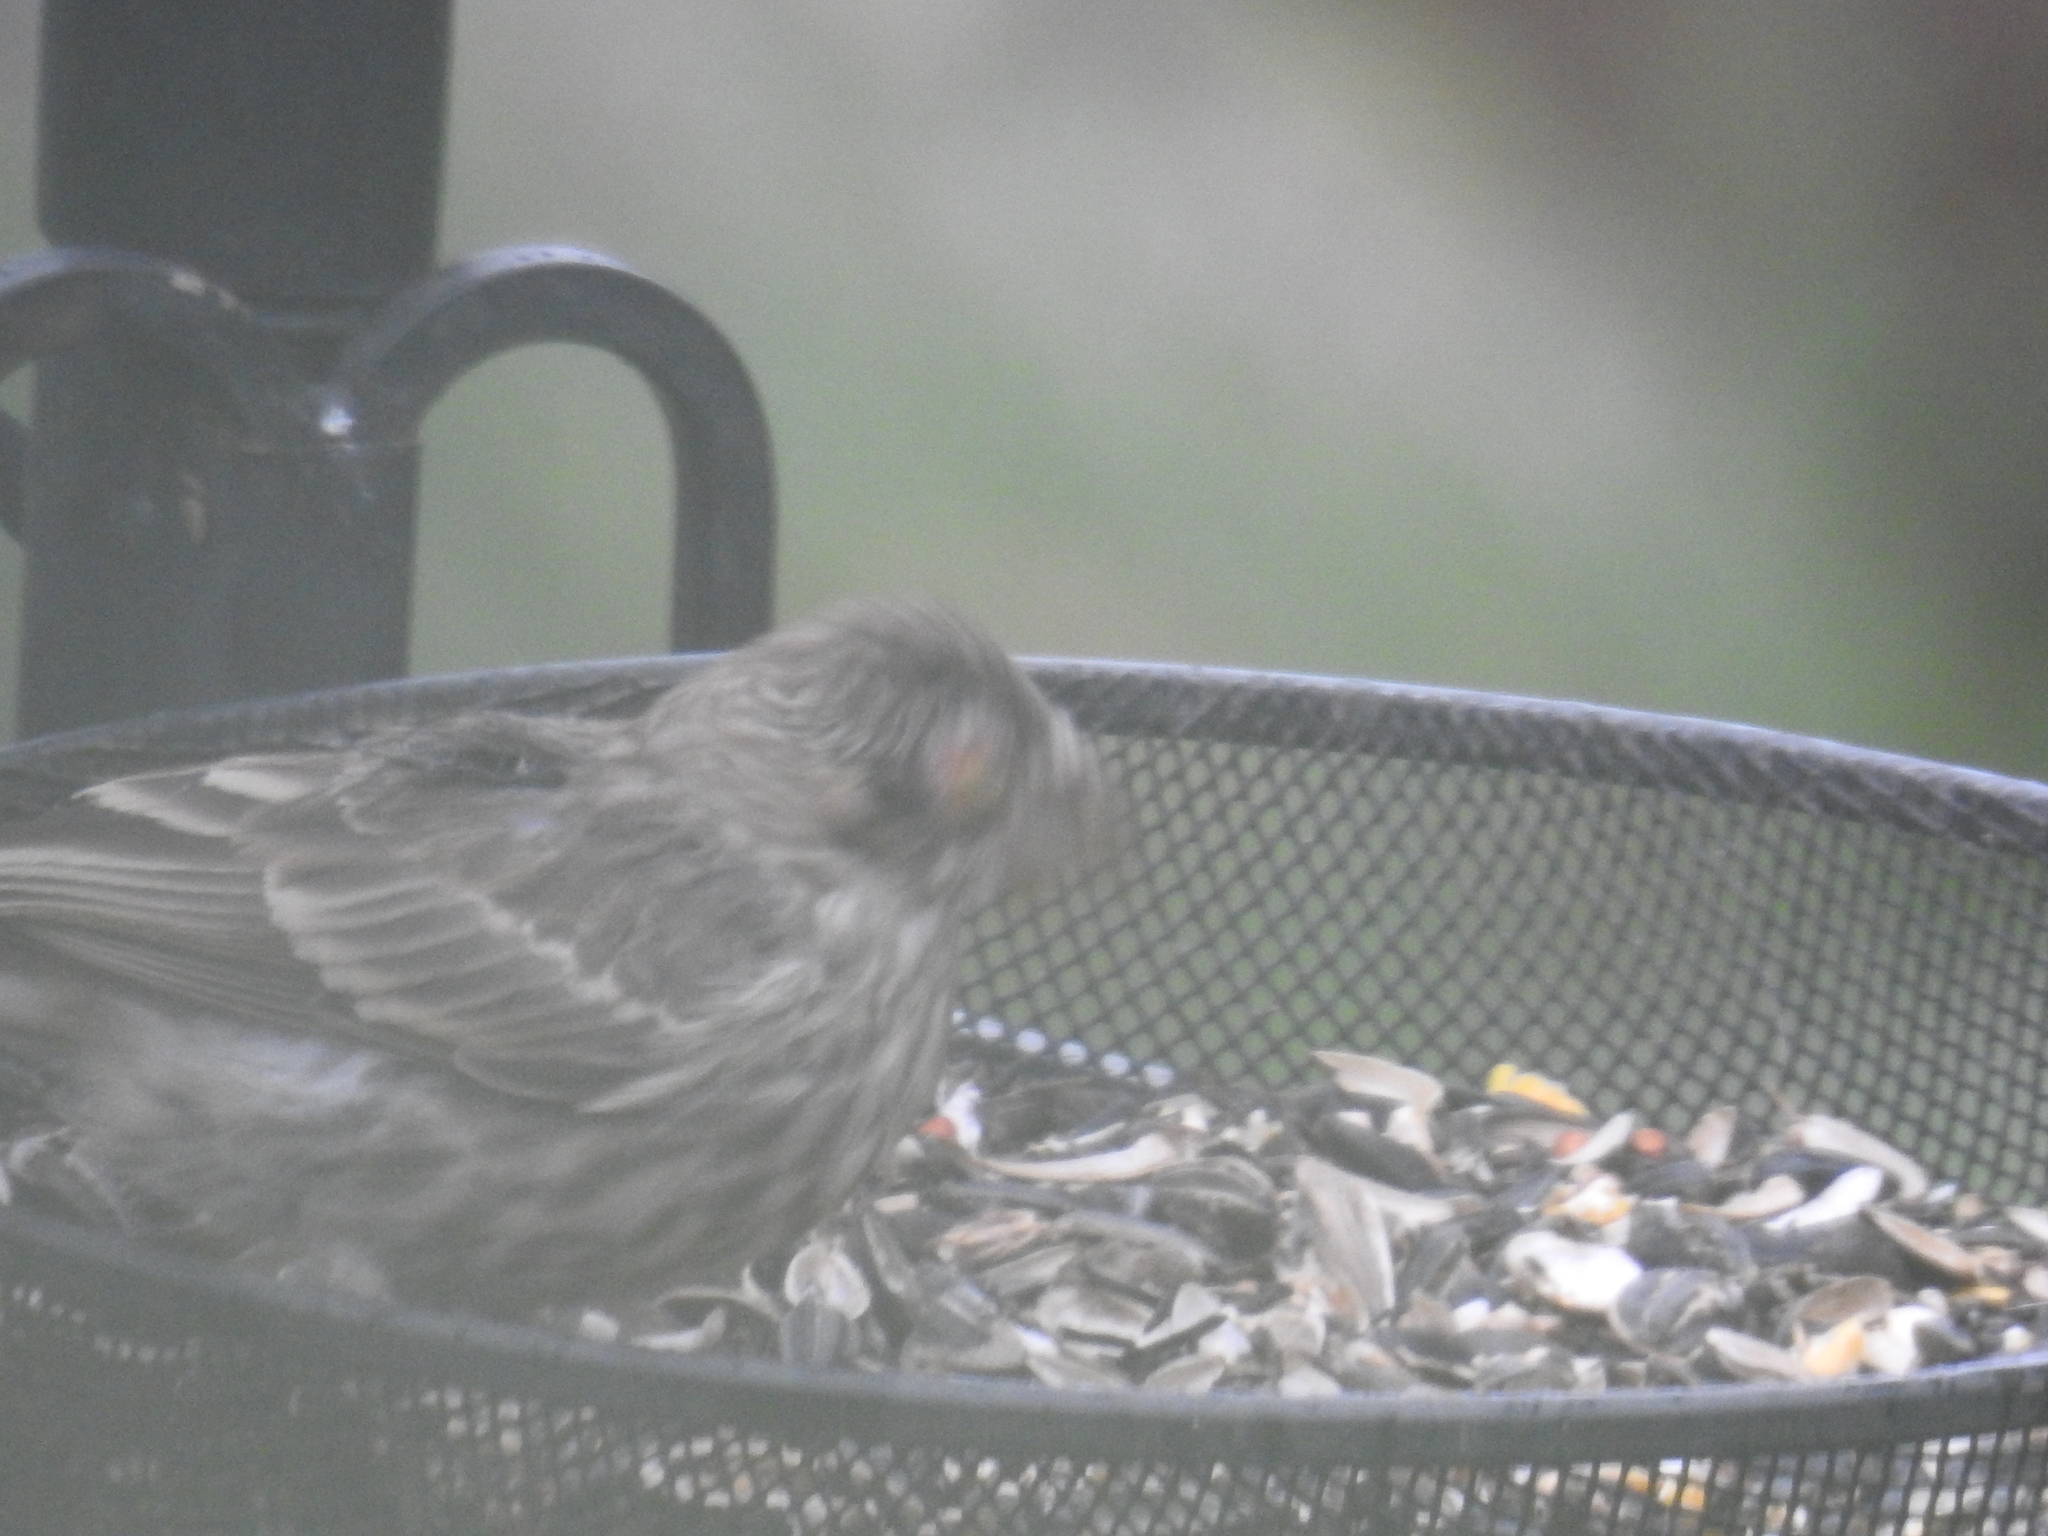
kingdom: Animalia
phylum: Chordata
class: Aves
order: Passeriformes
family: Fringillidae
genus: Haemorhous
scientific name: Haemorhous mexicanus
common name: House finch
